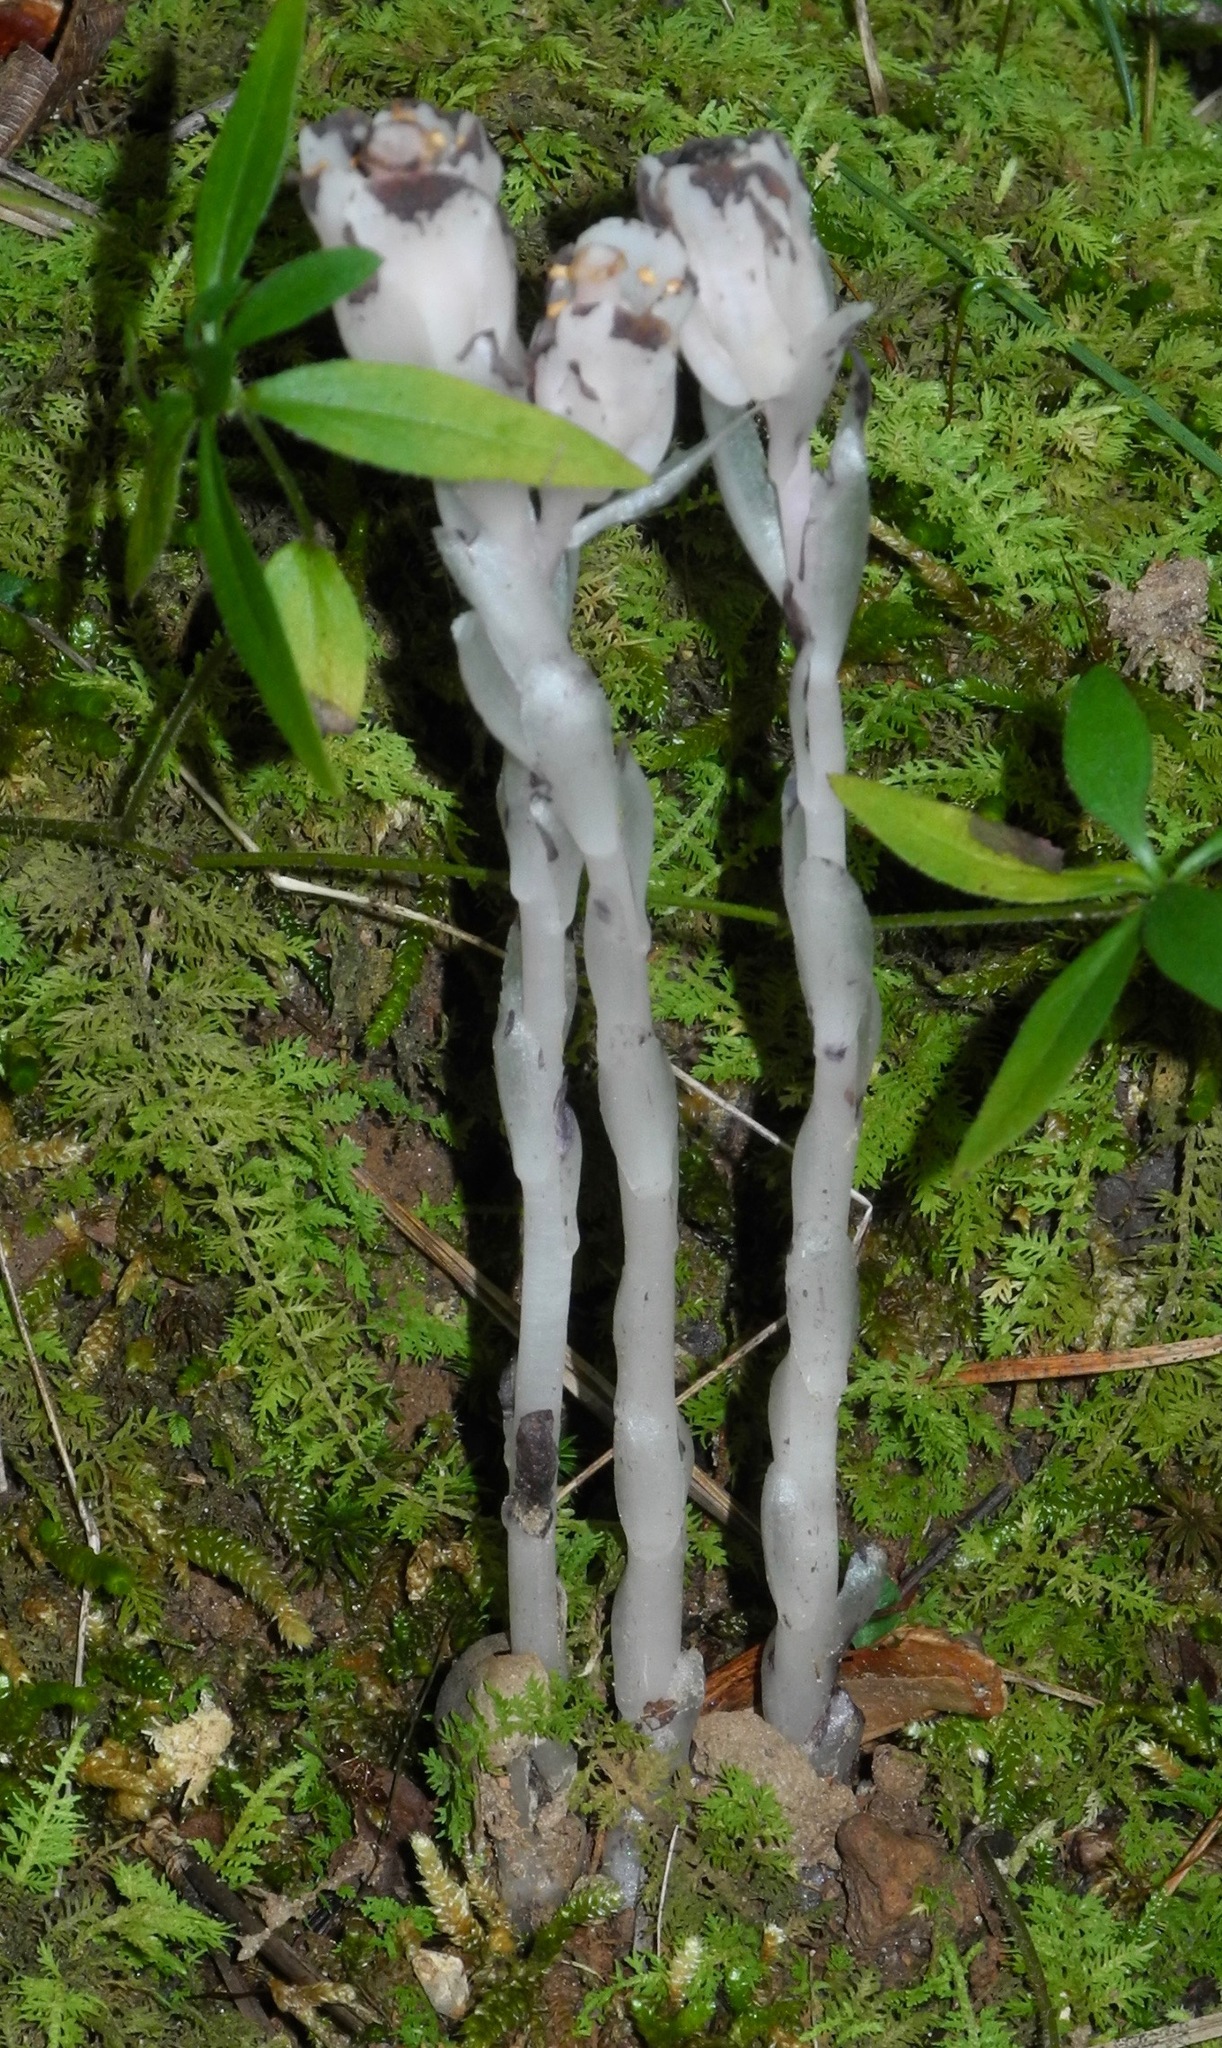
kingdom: Plantae
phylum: Tracheophyta
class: Magnoliopsida
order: Ericales
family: Ericaceae
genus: Monotropa
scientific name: Monotropa uniflora
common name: Convulsion root
